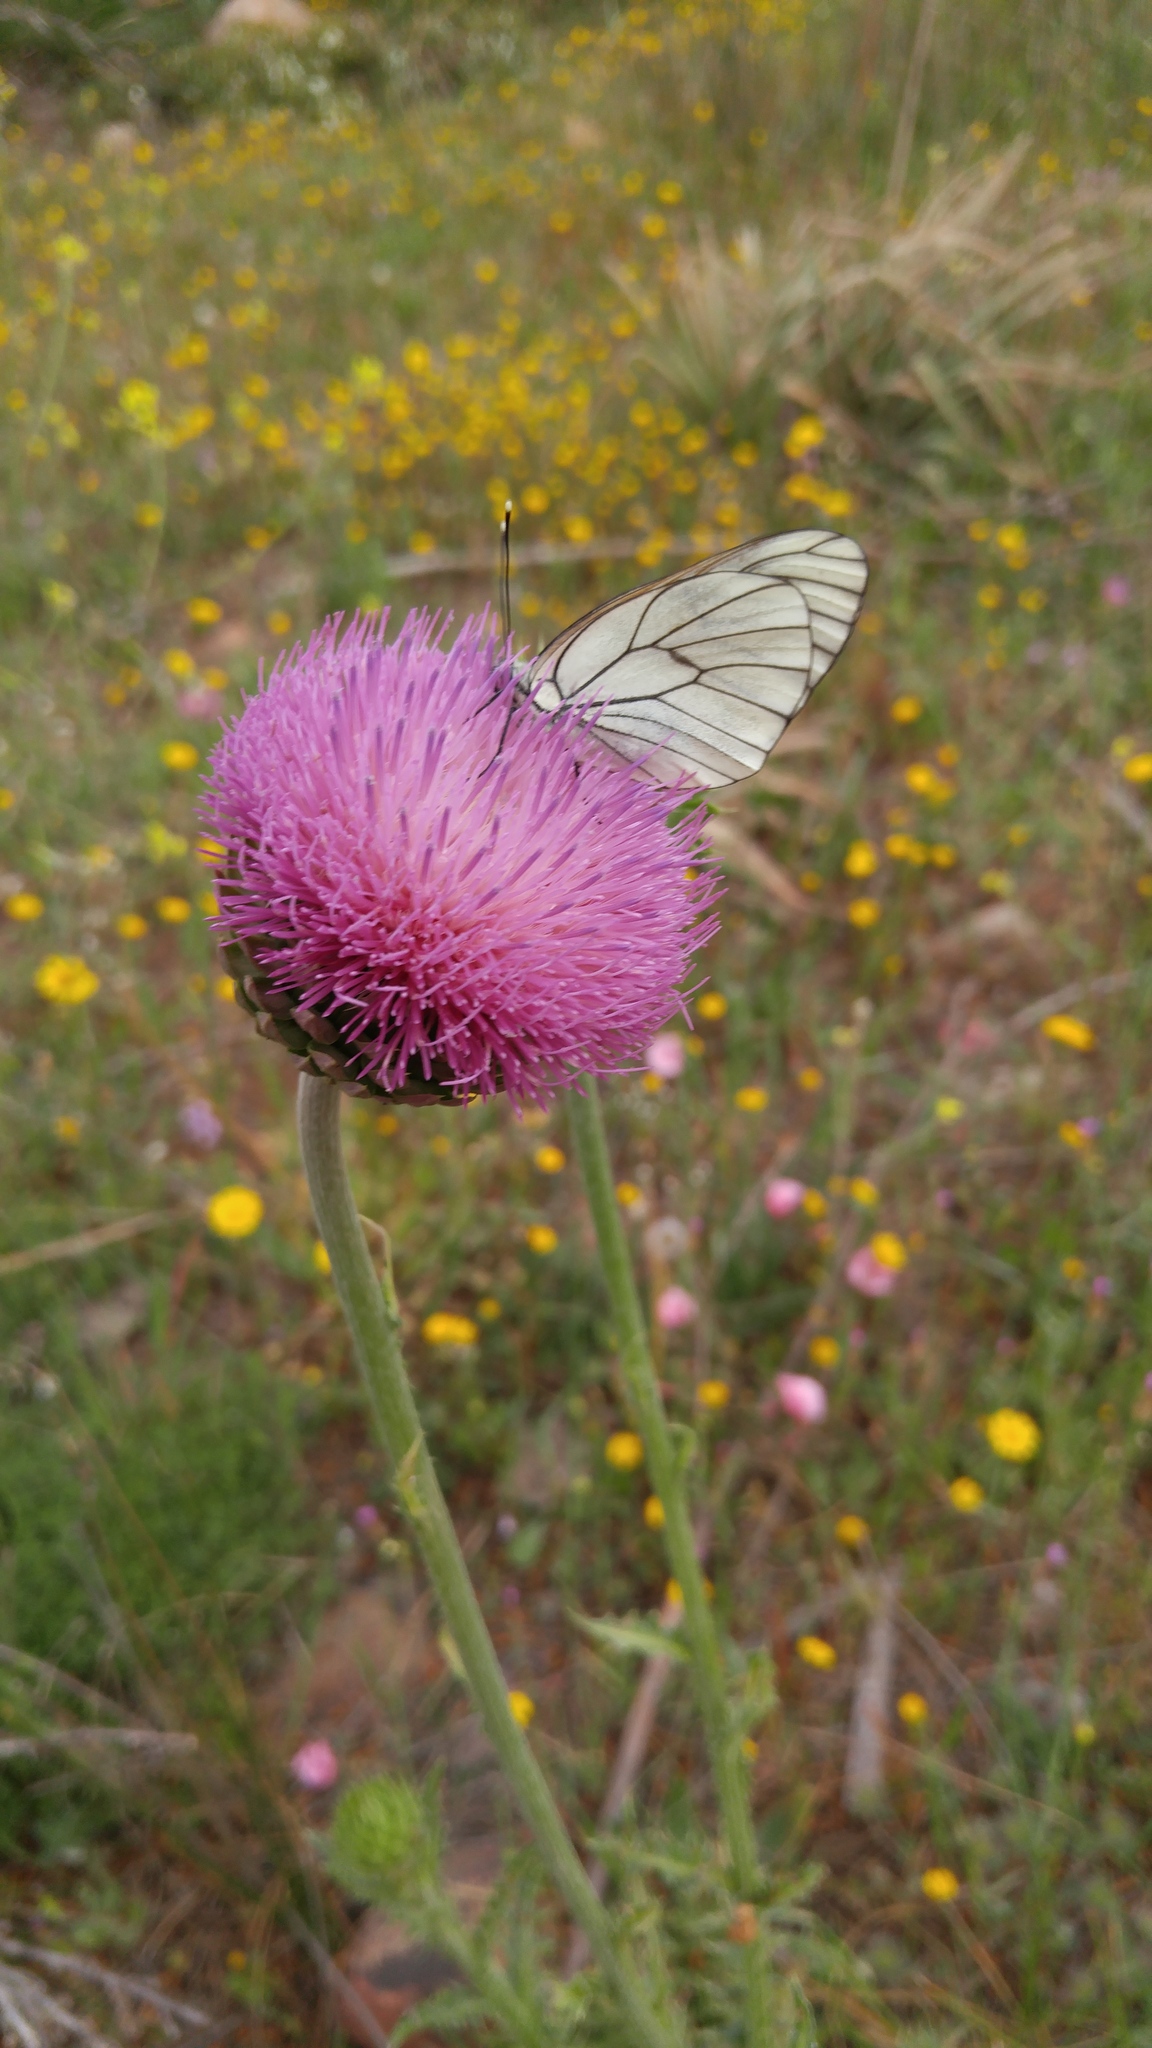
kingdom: Plantae
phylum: Tracheophyta
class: Magnoliopsida
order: Asterales
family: Asteraceae
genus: Carduus
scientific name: Carduus numidicus
